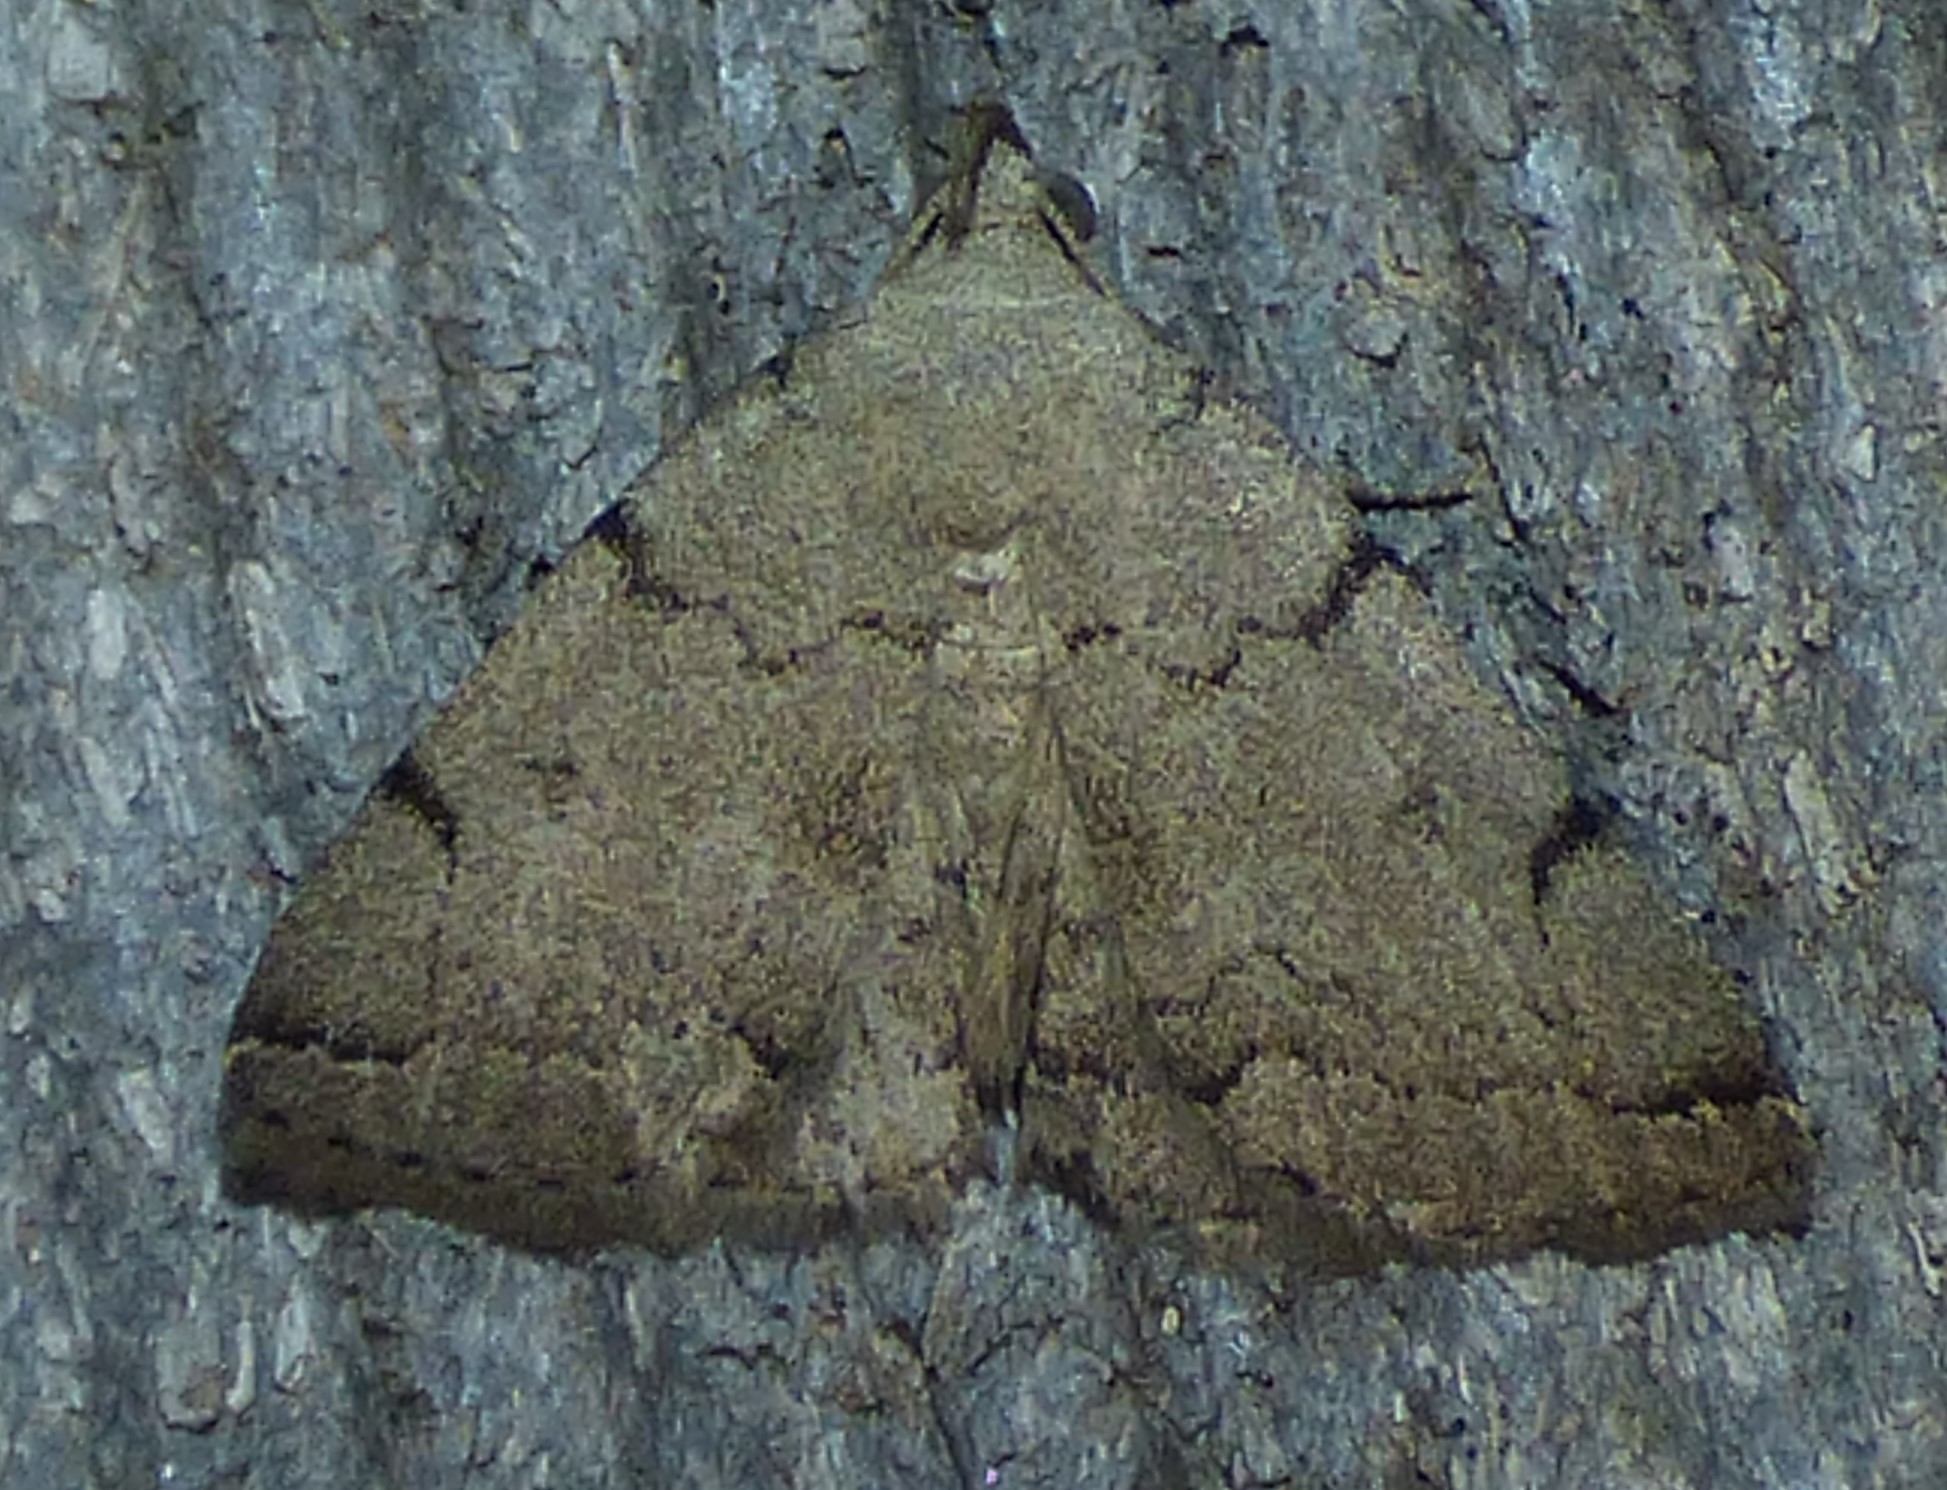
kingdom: Animalia
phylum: Arthropoda
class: Insecta
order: Lepidoptera
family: Erebidae
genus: Zanclognatha
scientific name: Zanclognatha theralis
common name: Flagged fan-foot
